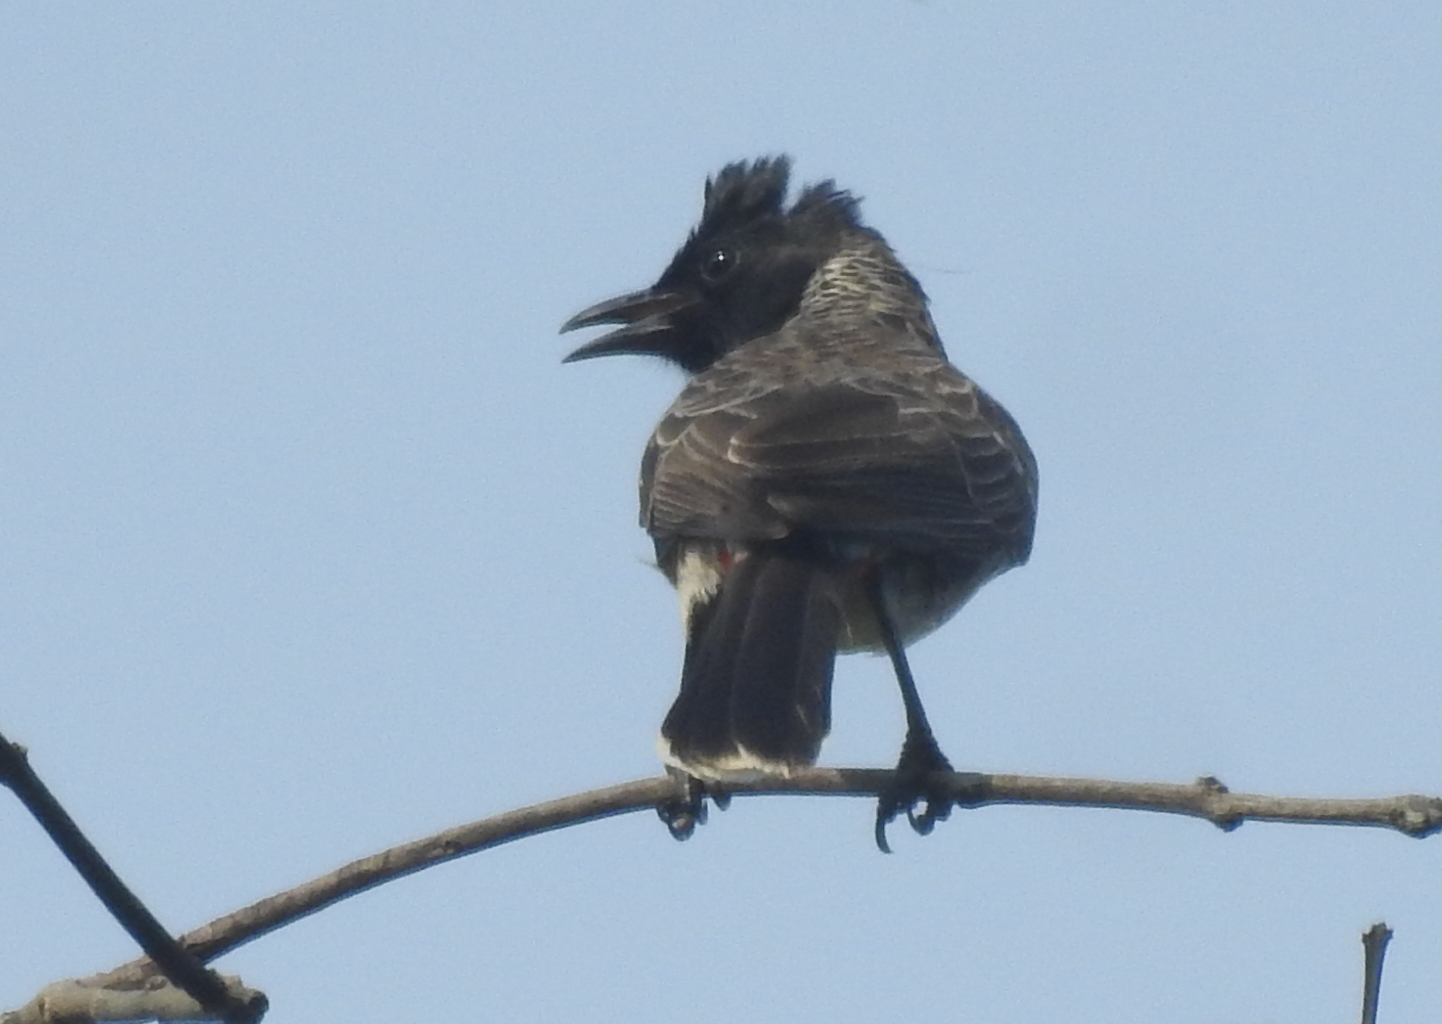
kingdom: Animalia
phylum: Chordata
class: Aves
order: Passeriformes
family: Pycnonotidae
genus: Pycnonotus
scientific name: Pycnonotus cafer
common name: Red-vented bulbul
